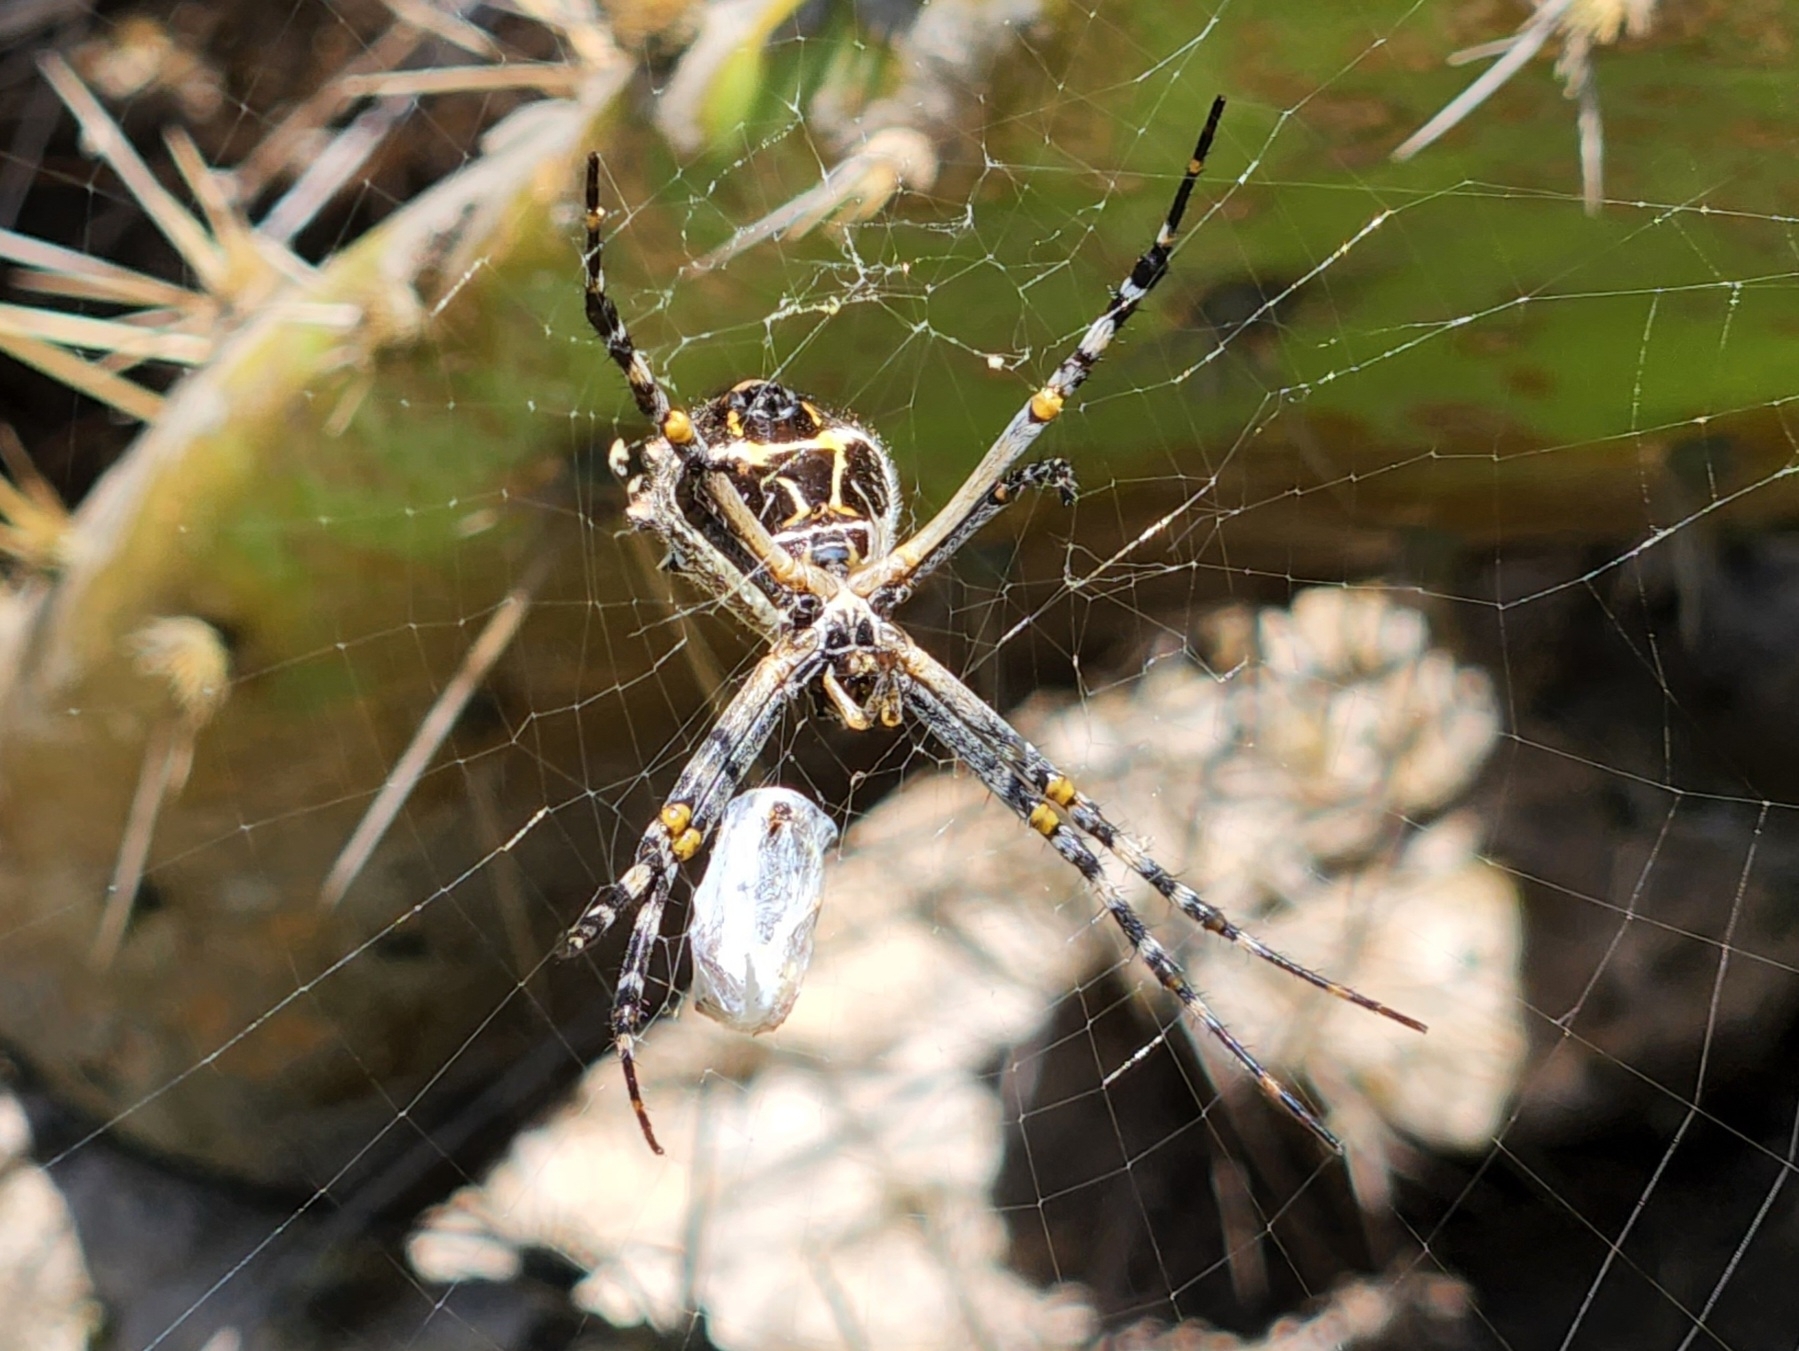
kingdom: Animalia
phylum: Arthropoda
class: Arachnida
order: Araneae
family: Araneidae
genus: Argiope
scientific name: Argiope argentata
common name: Orb weavers
